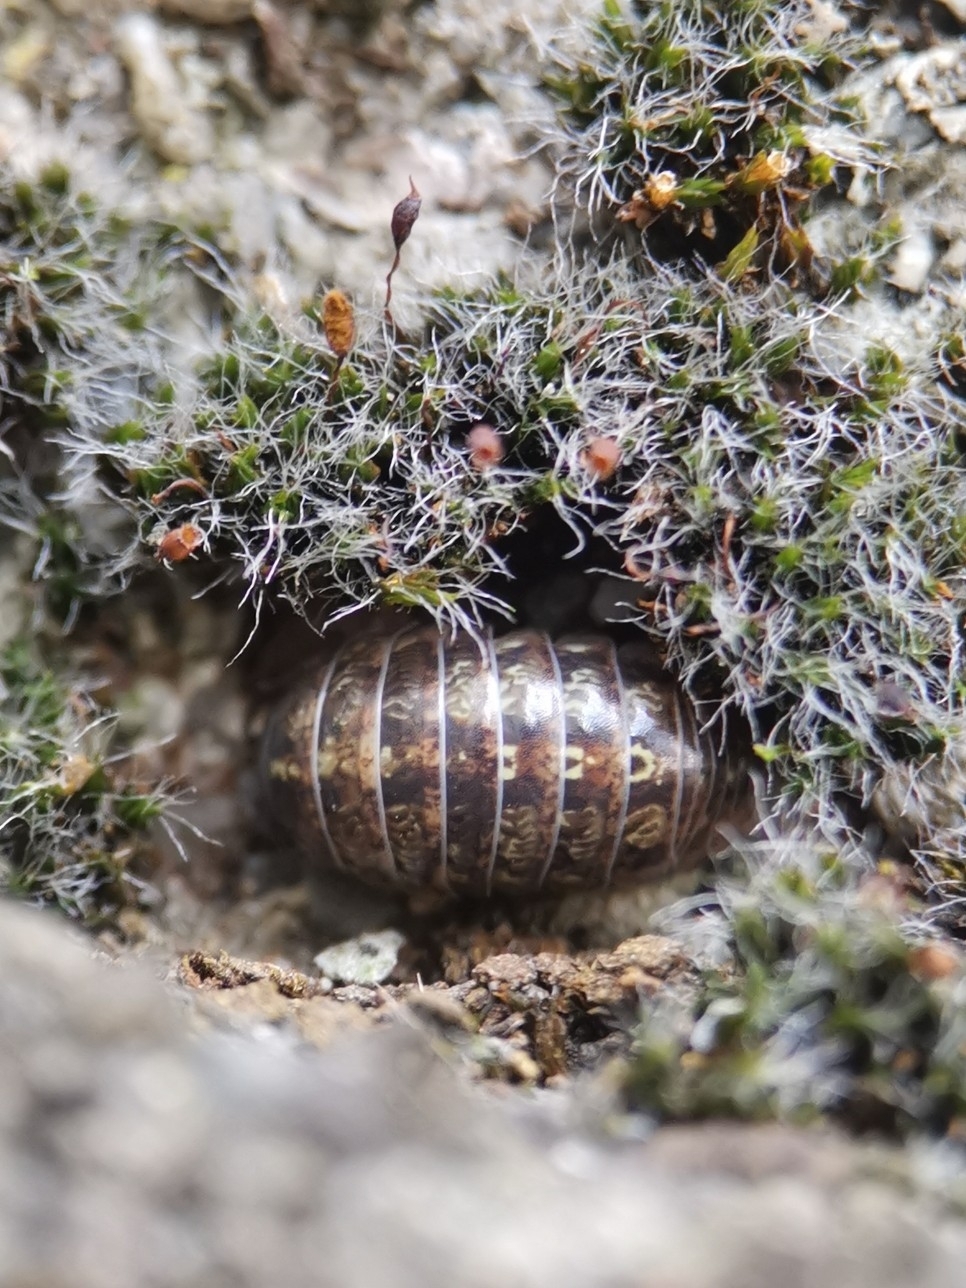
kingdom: Animalia
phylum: Arthropoda
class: Malacostraca
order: Isopoda
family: Armadillidiidae
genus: Armadillidium
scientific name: Armadillidium vulgare
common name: Common pill woodlouse
